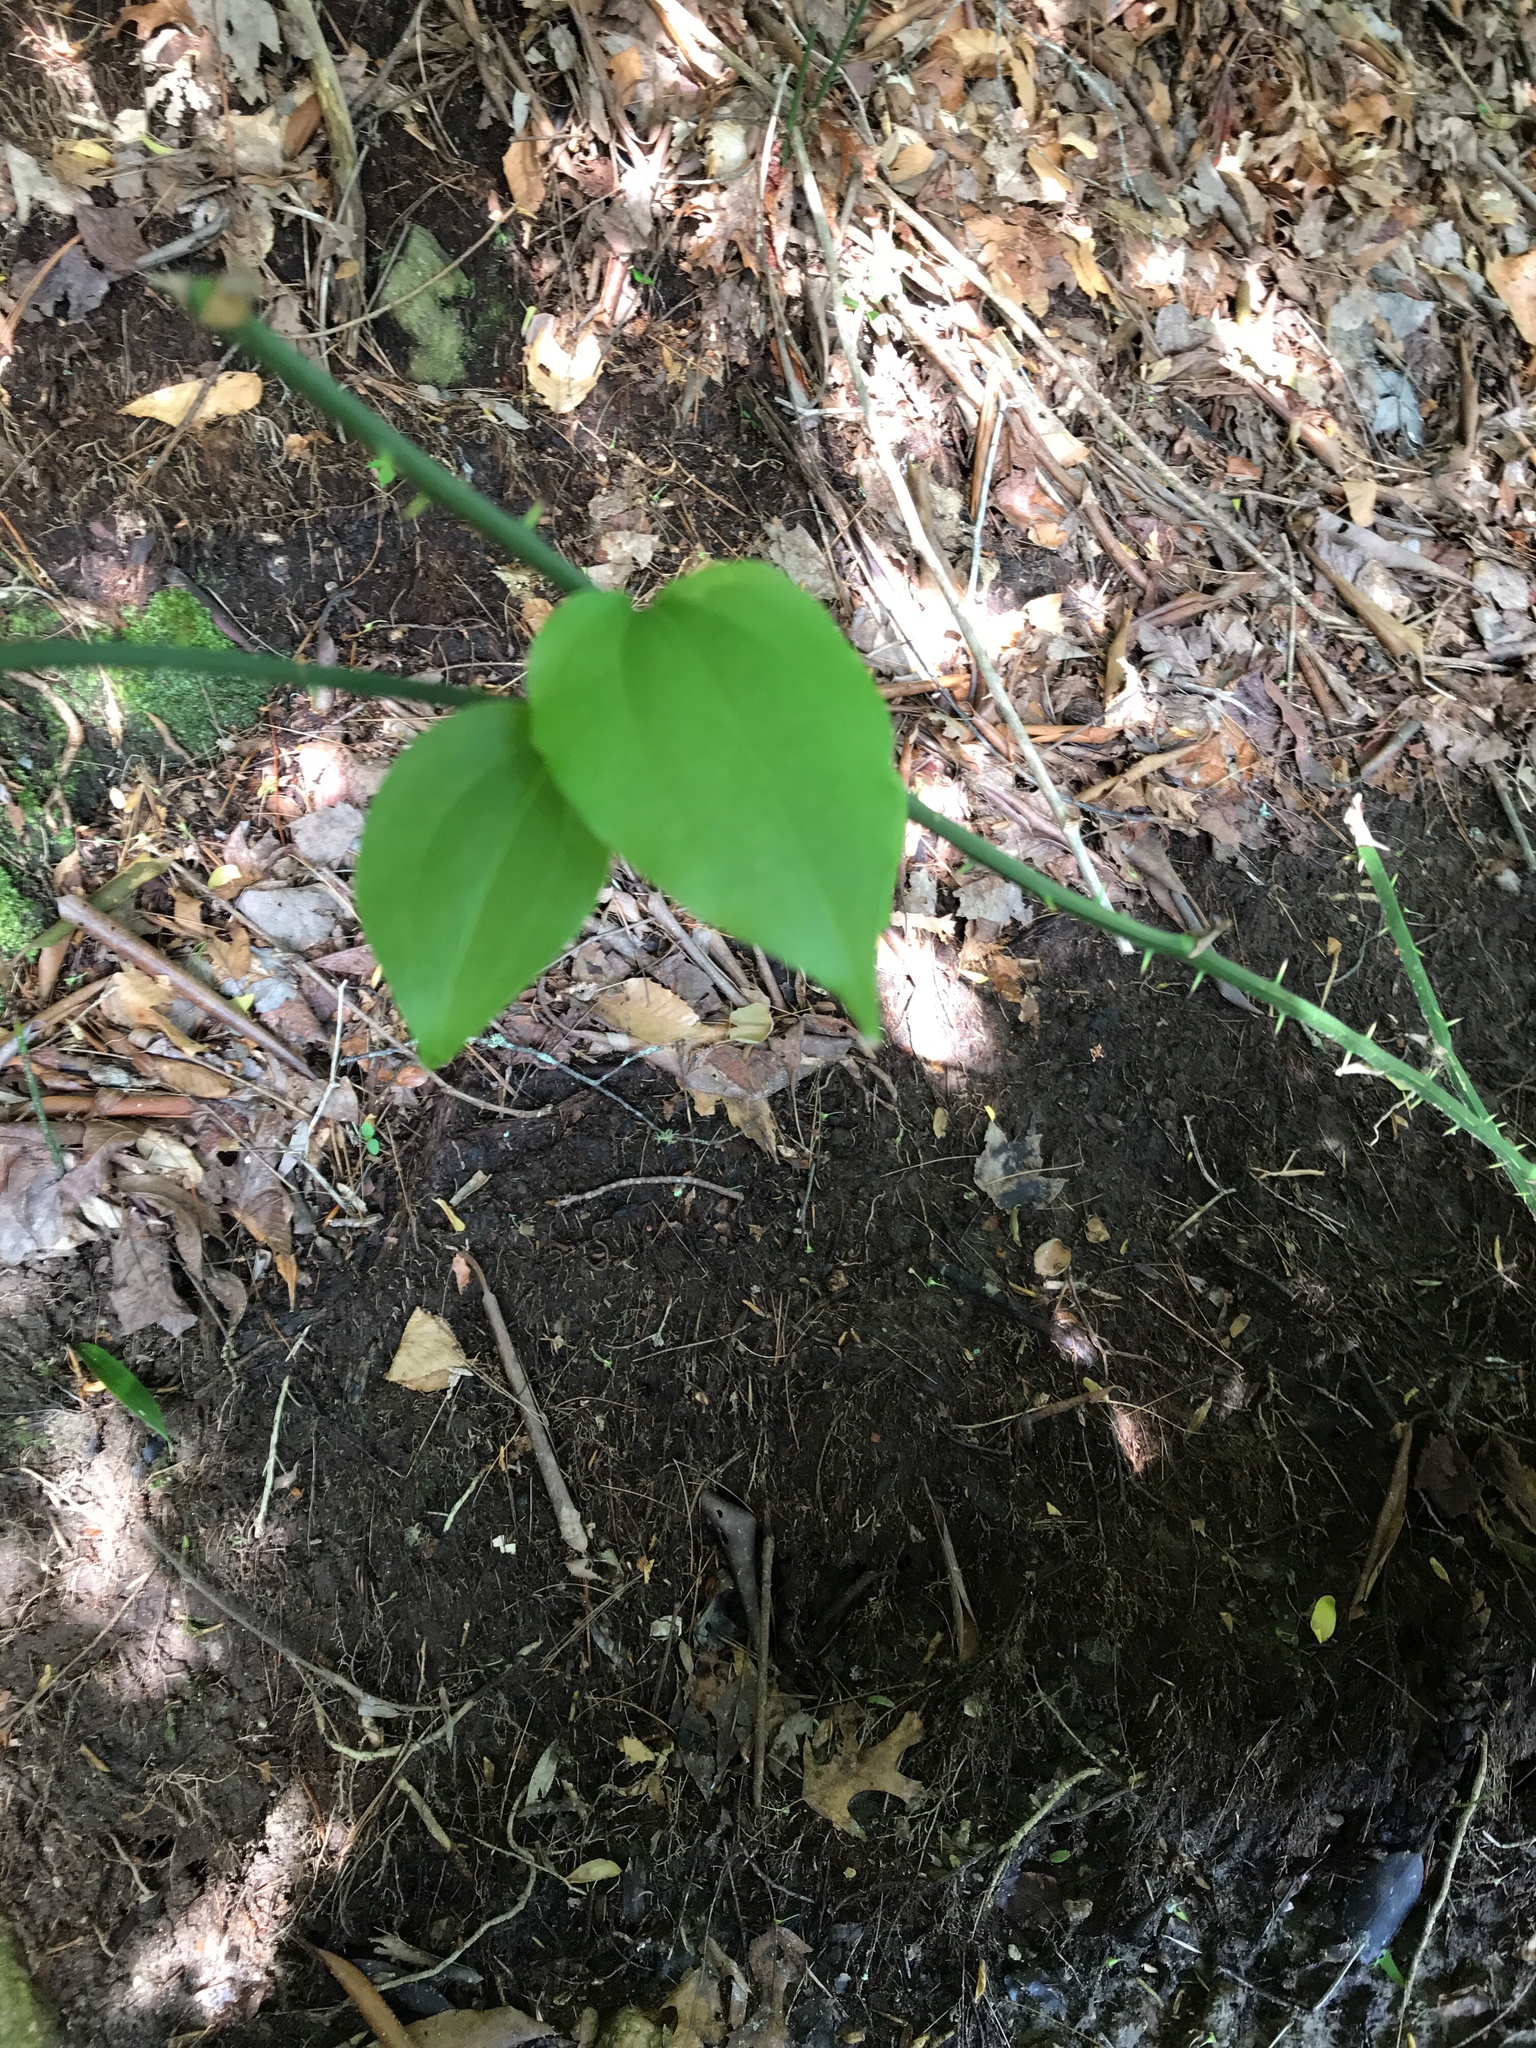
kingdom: Plantae
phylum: Tracheophyta
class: Liliopsida
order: Liliales
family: Smilacaceae
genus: Smilax
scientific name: Smilax rotundifolia
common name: Bullbriar
